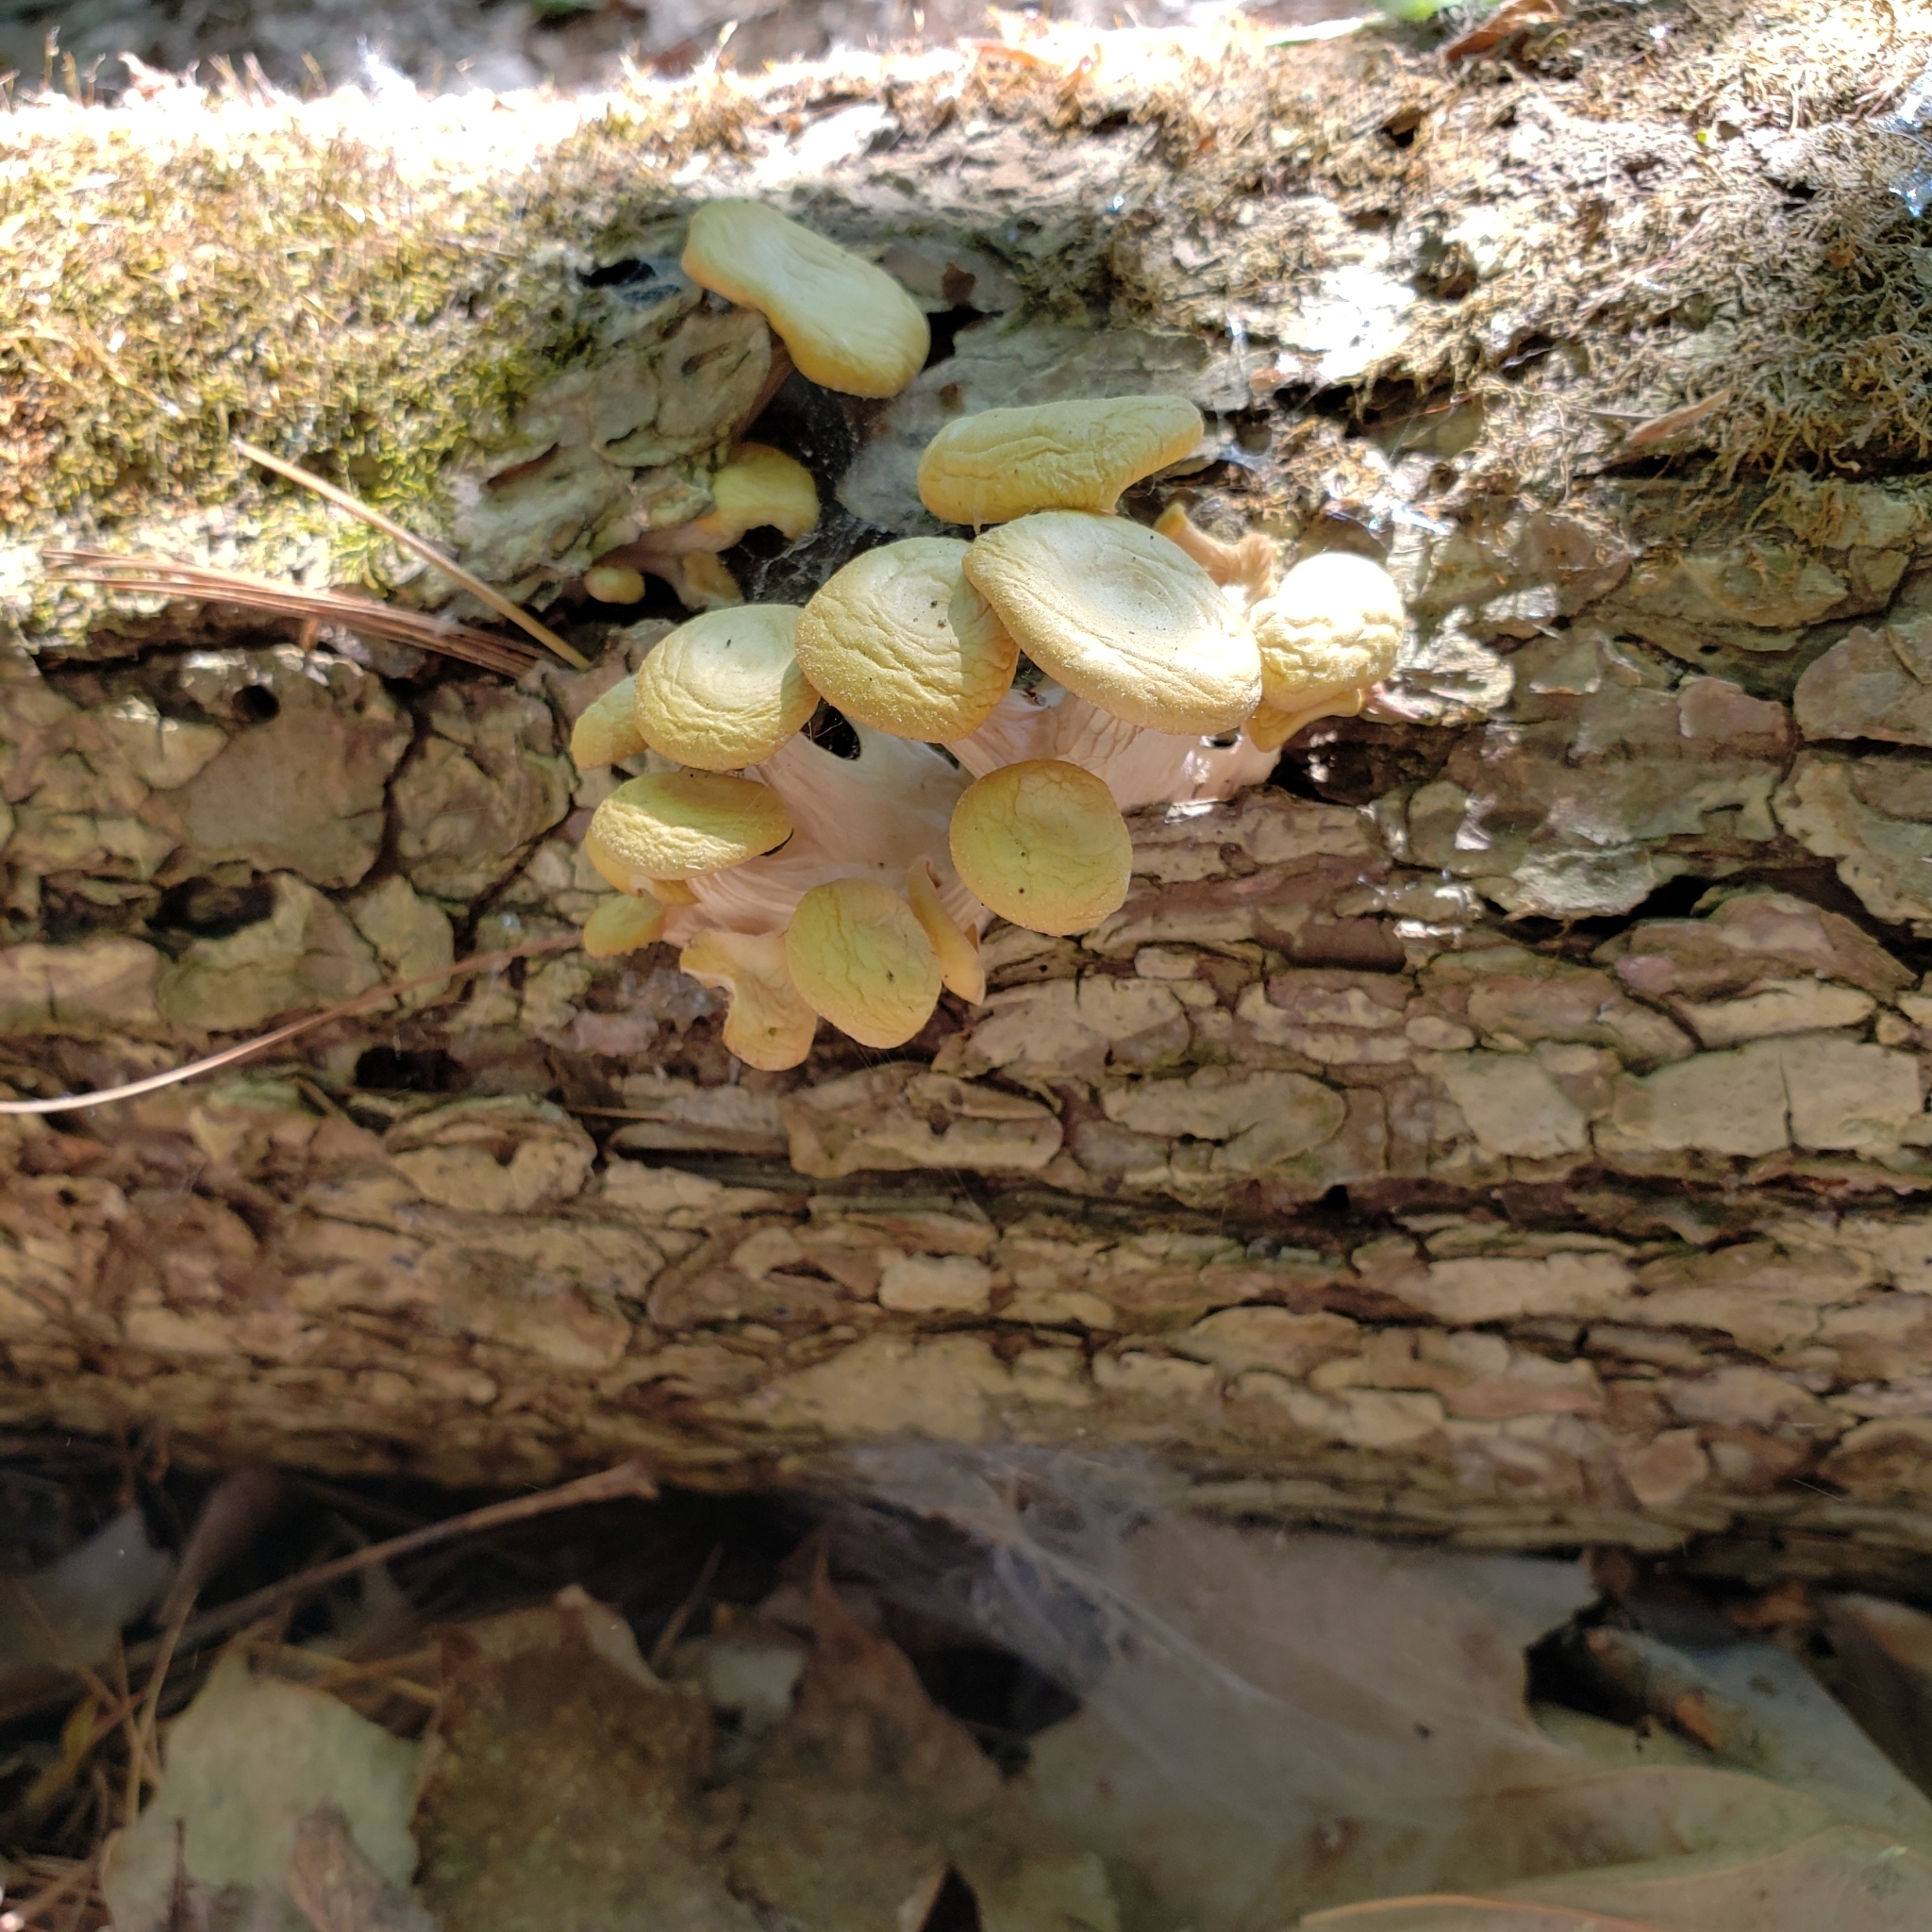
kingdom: Fungi
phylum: Basidiomycota
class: Agaricomycetes
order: Agaricales
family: Pleurotaceae
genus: Pleurotus
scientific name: Pleurotus citrinopileatus
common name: Golden oyster mushroom
